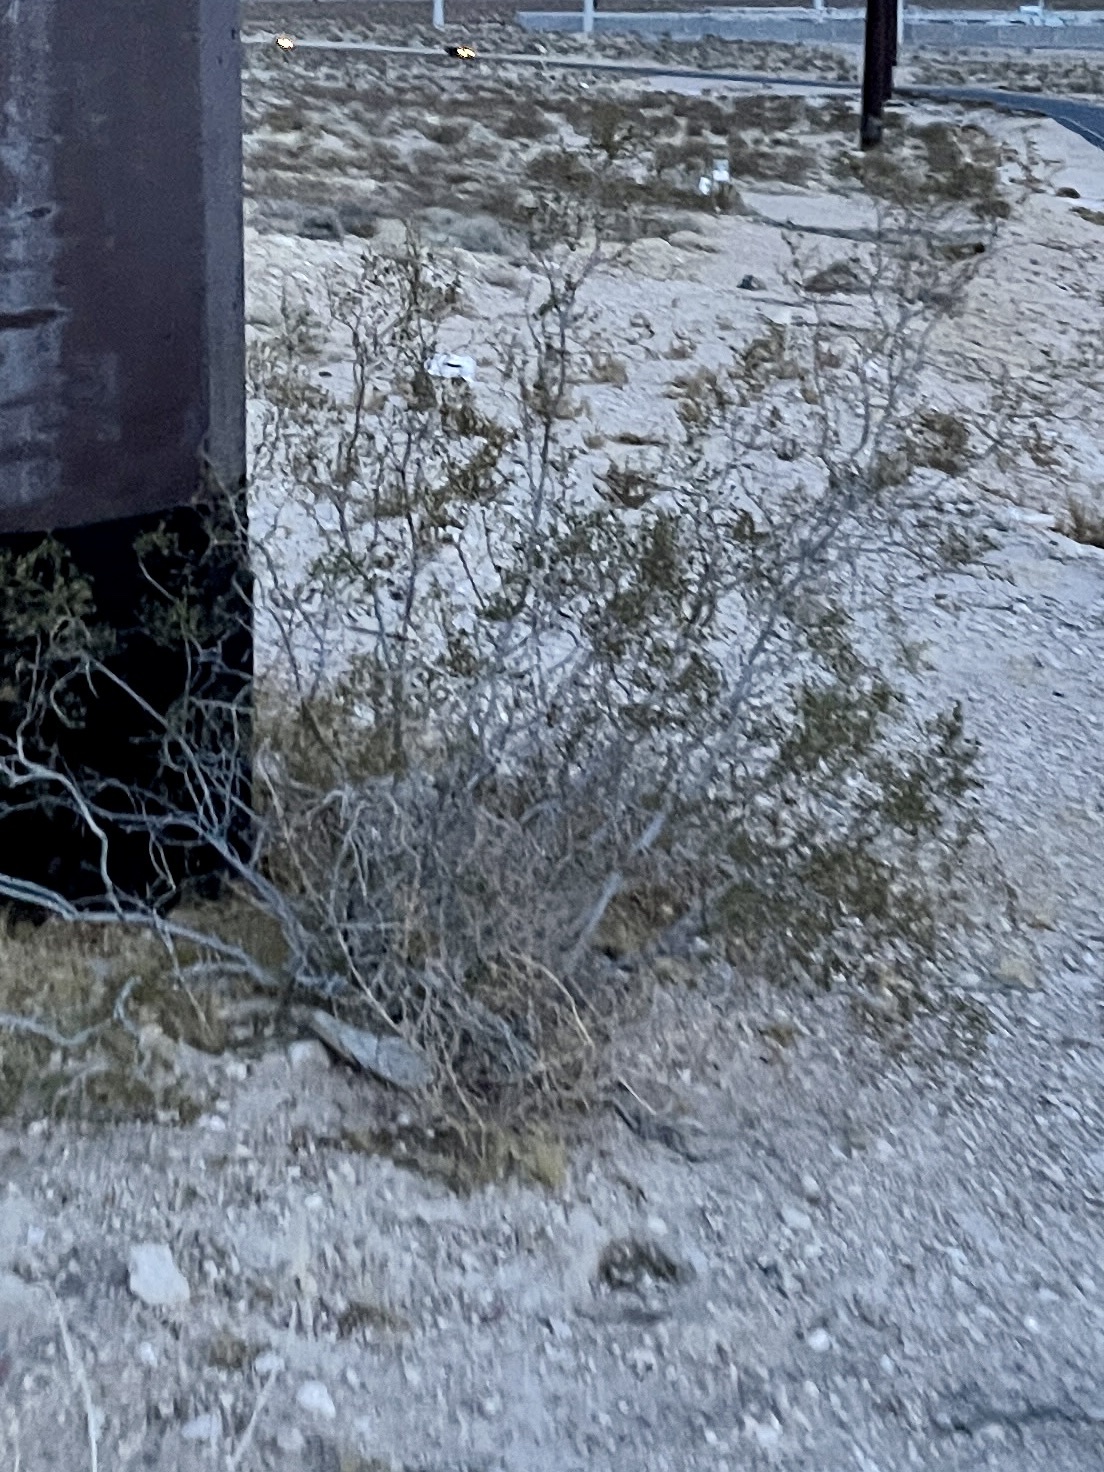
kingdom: Plantae
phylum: Tracheophyta
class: Magnoliopsida
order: Zygophyllales
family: Zygophyllaceae
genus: Larrea
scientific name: Larrea tridentata
